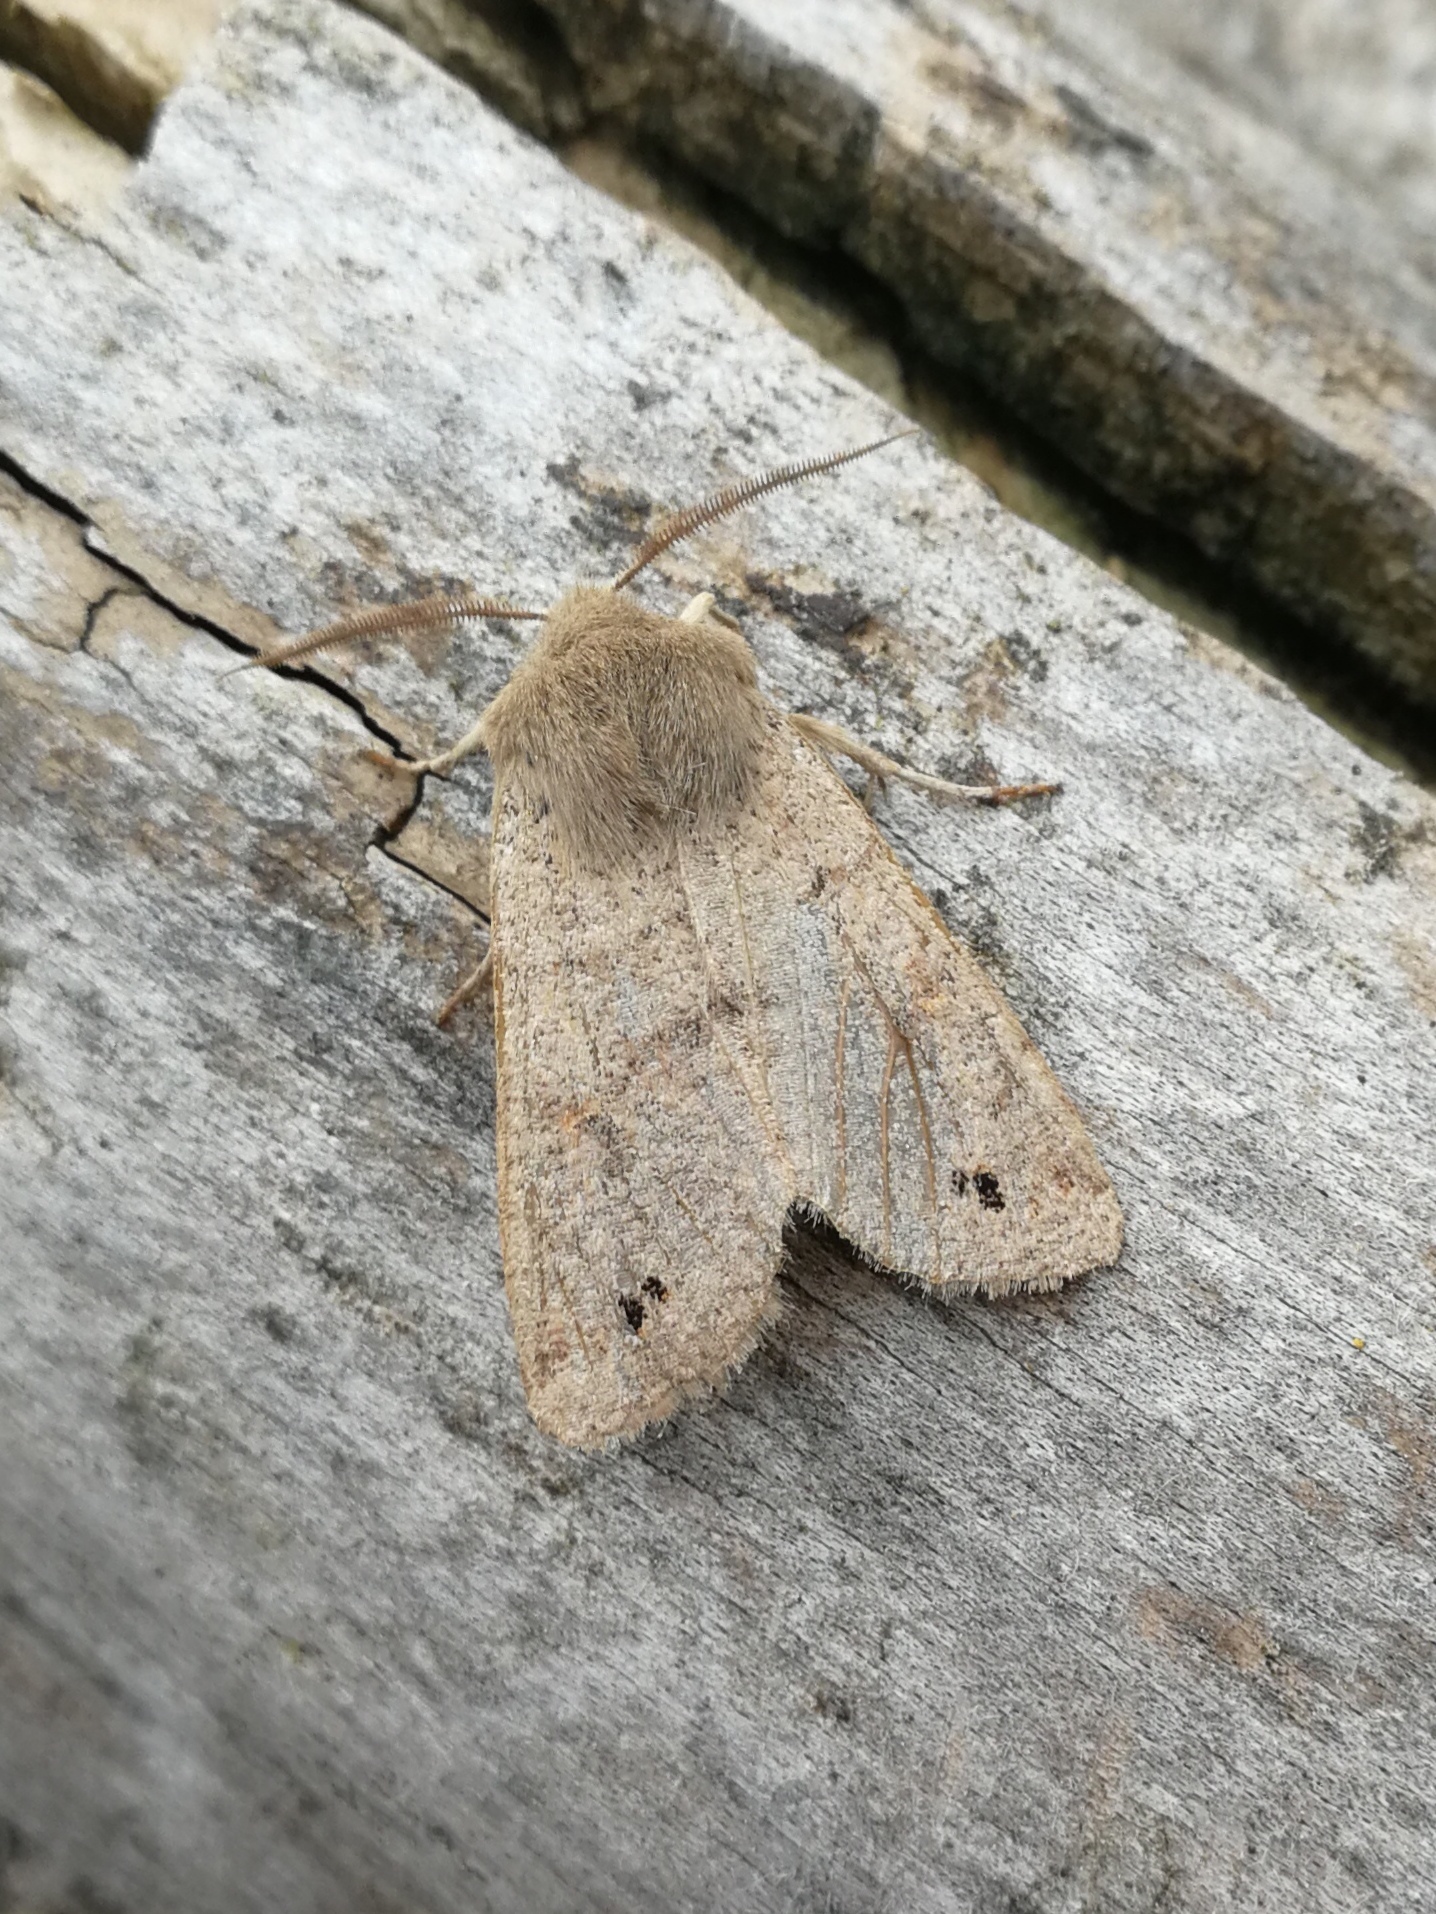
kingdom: Animalia
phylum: Arthropoda
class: Insecta
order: Lepidoptera
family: Noctuidae
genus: Anorthoa
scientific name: Anorthoa munda
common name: Twin-spotted quaker
